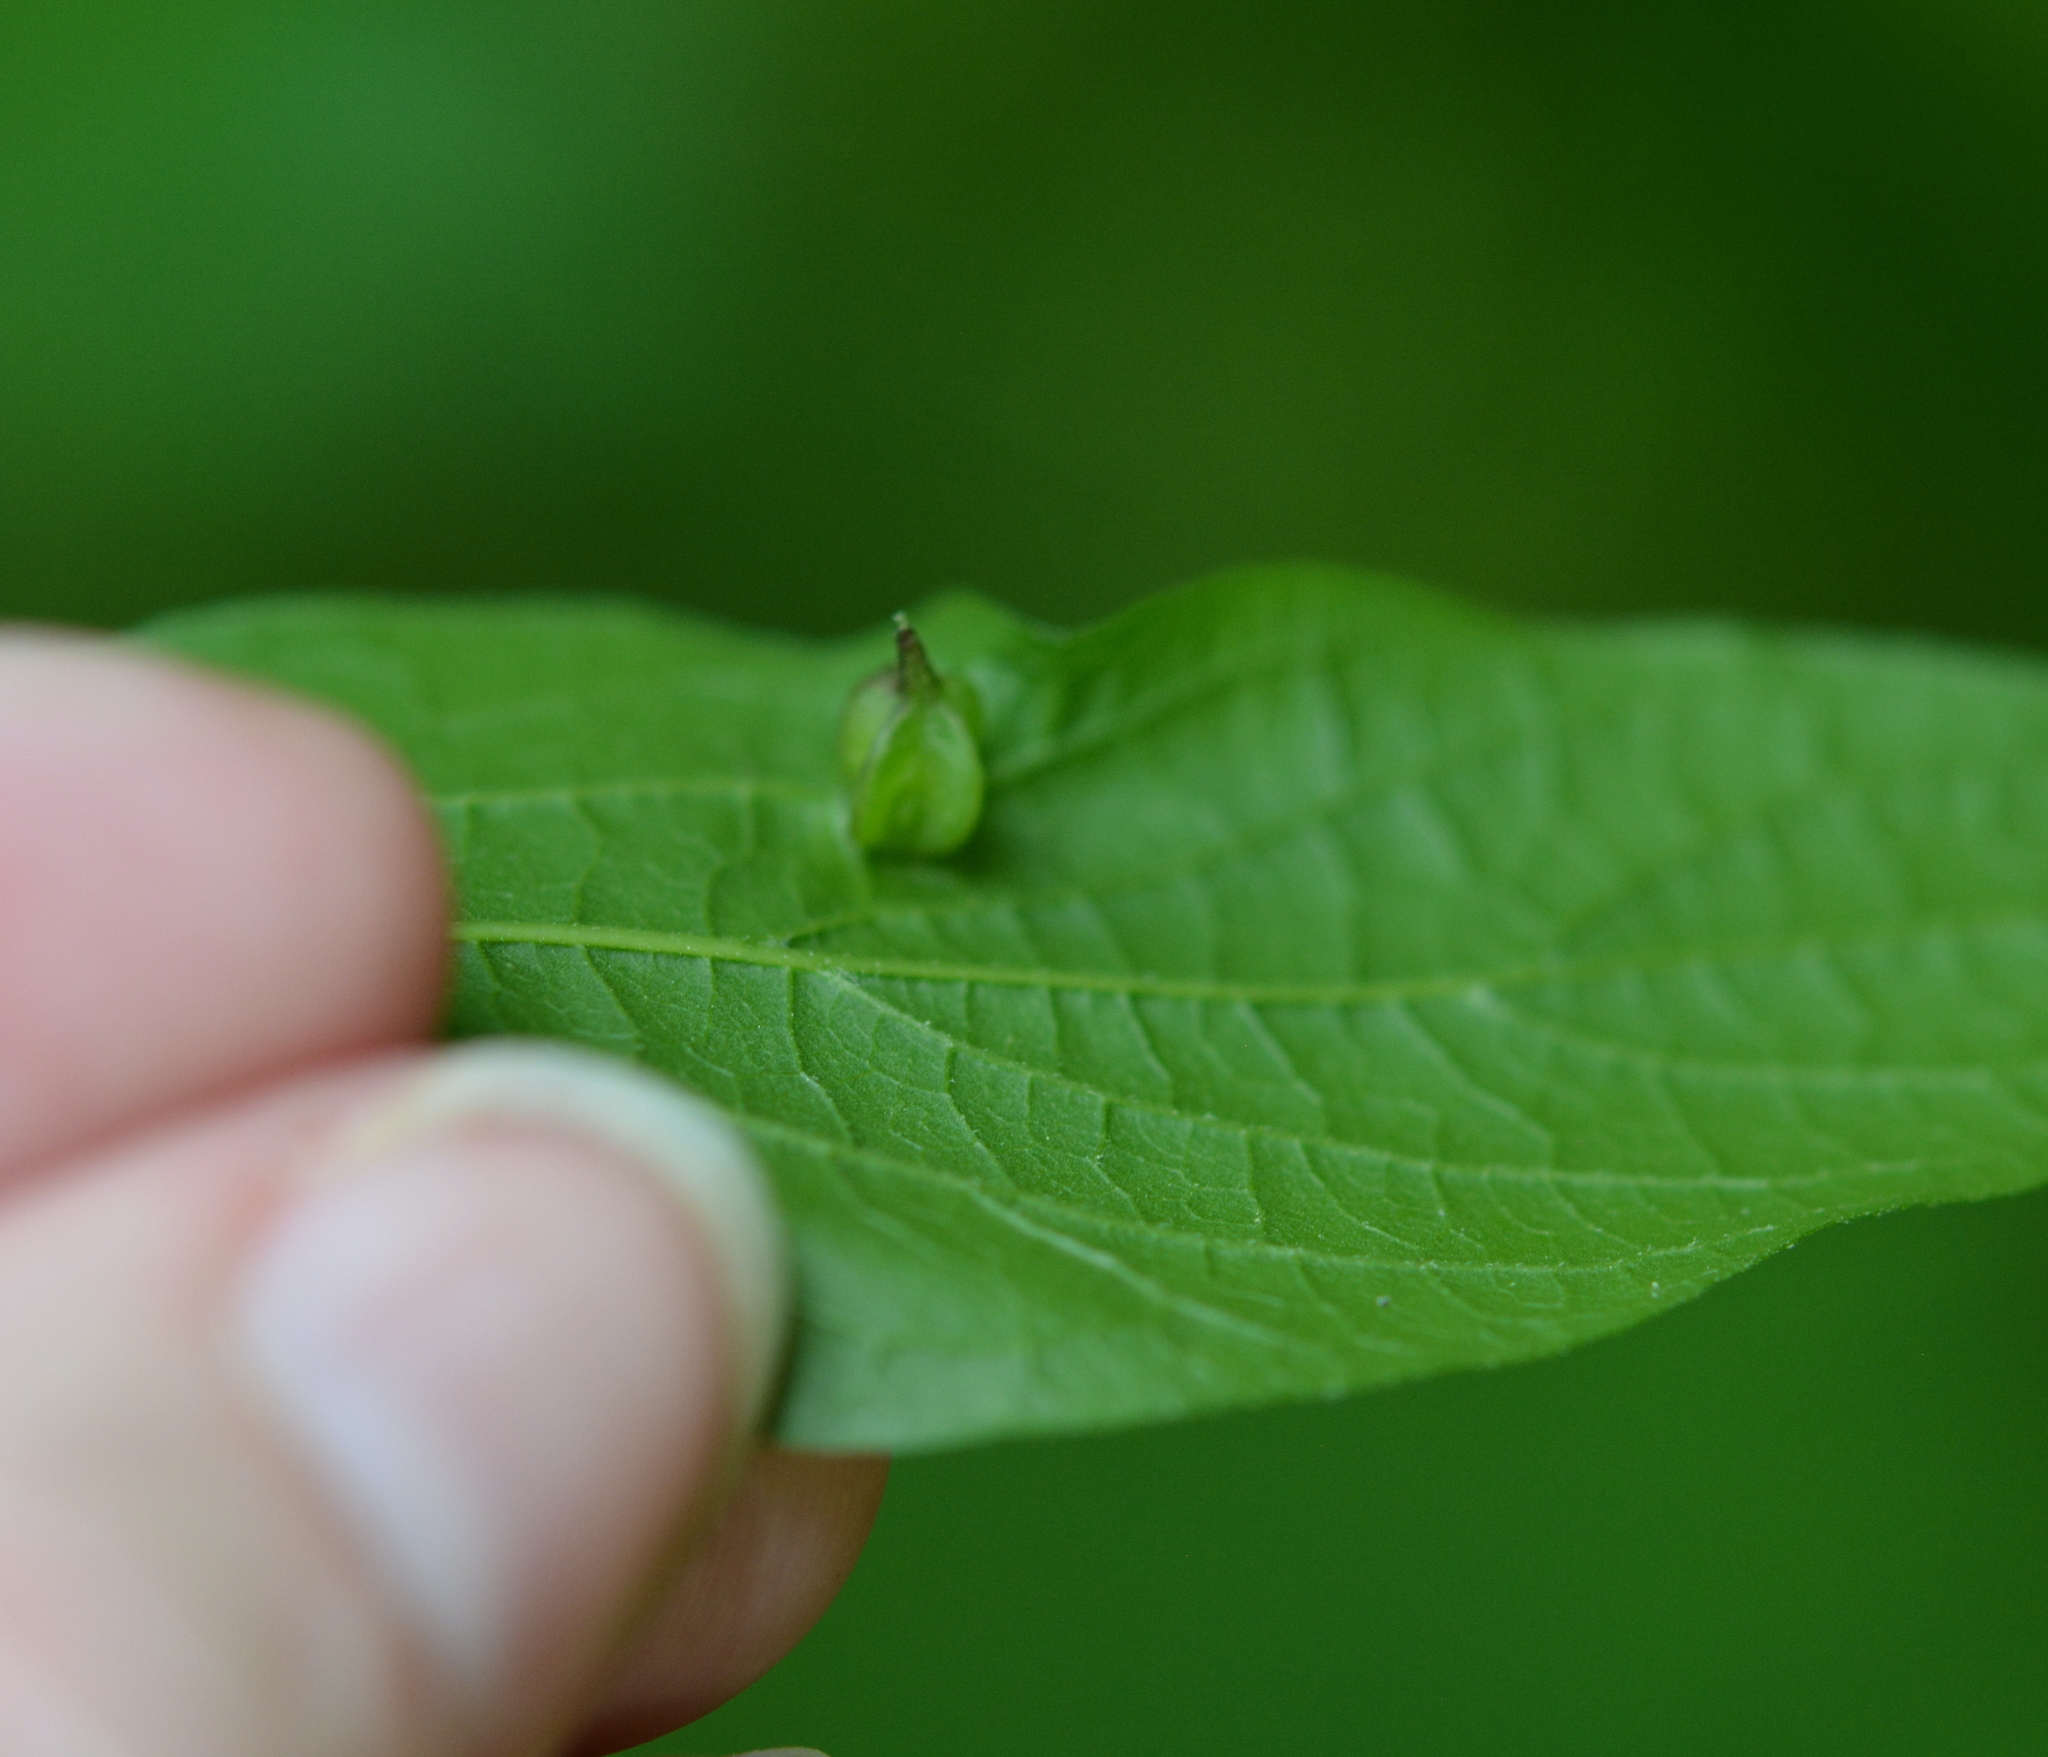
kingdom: Animalia
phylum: Arthropoda
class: Insecta
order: Diptera
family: Cecidomyiidae
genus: Celticecis
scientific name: Celticecis semenrumicis
